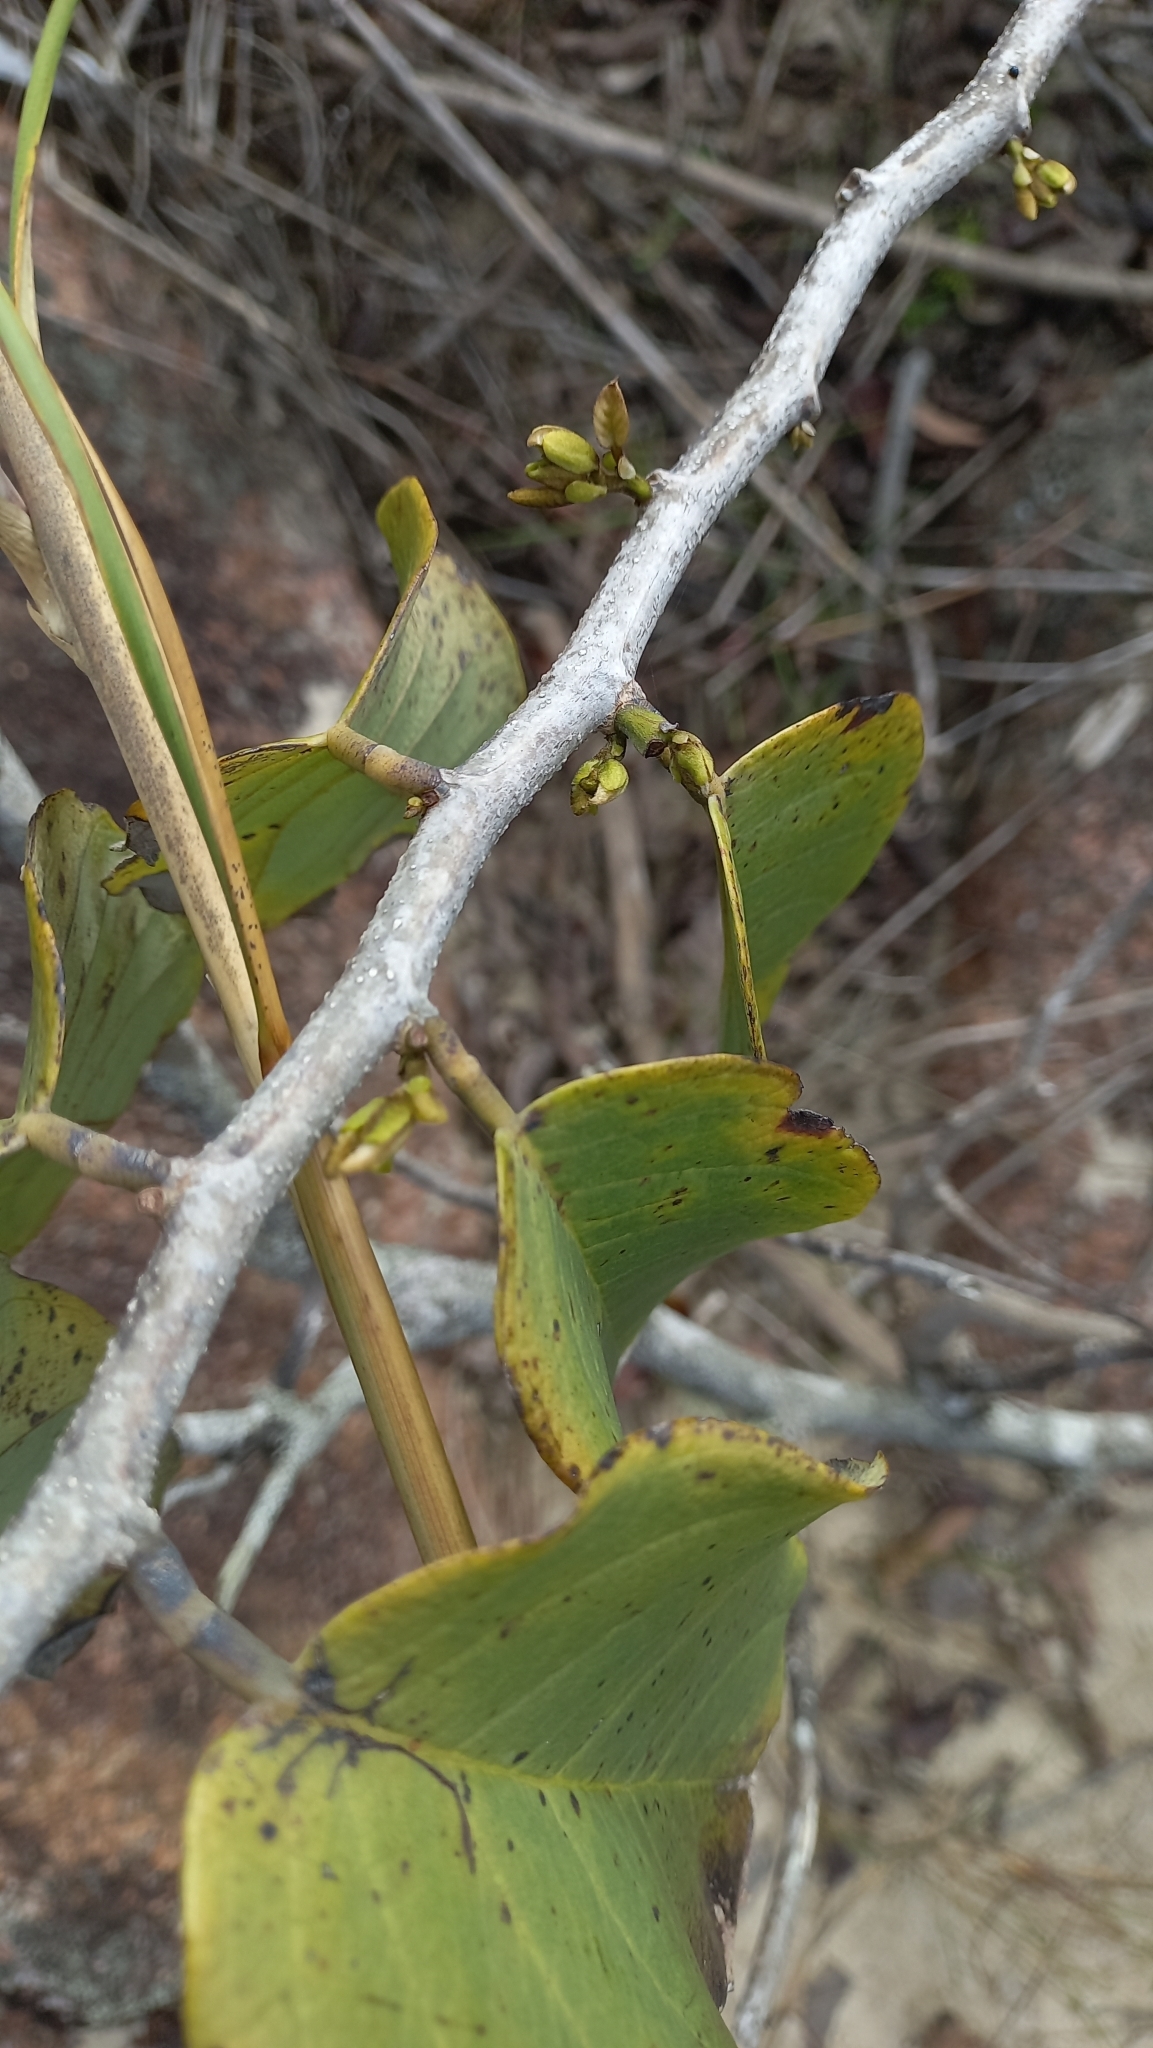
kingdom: Plantae
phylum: Tracheophyta
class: Magnoliopsida
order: Fabales
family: Fabaceae
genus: Dalbergia
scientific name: Dalbergia ecastaphyllum
